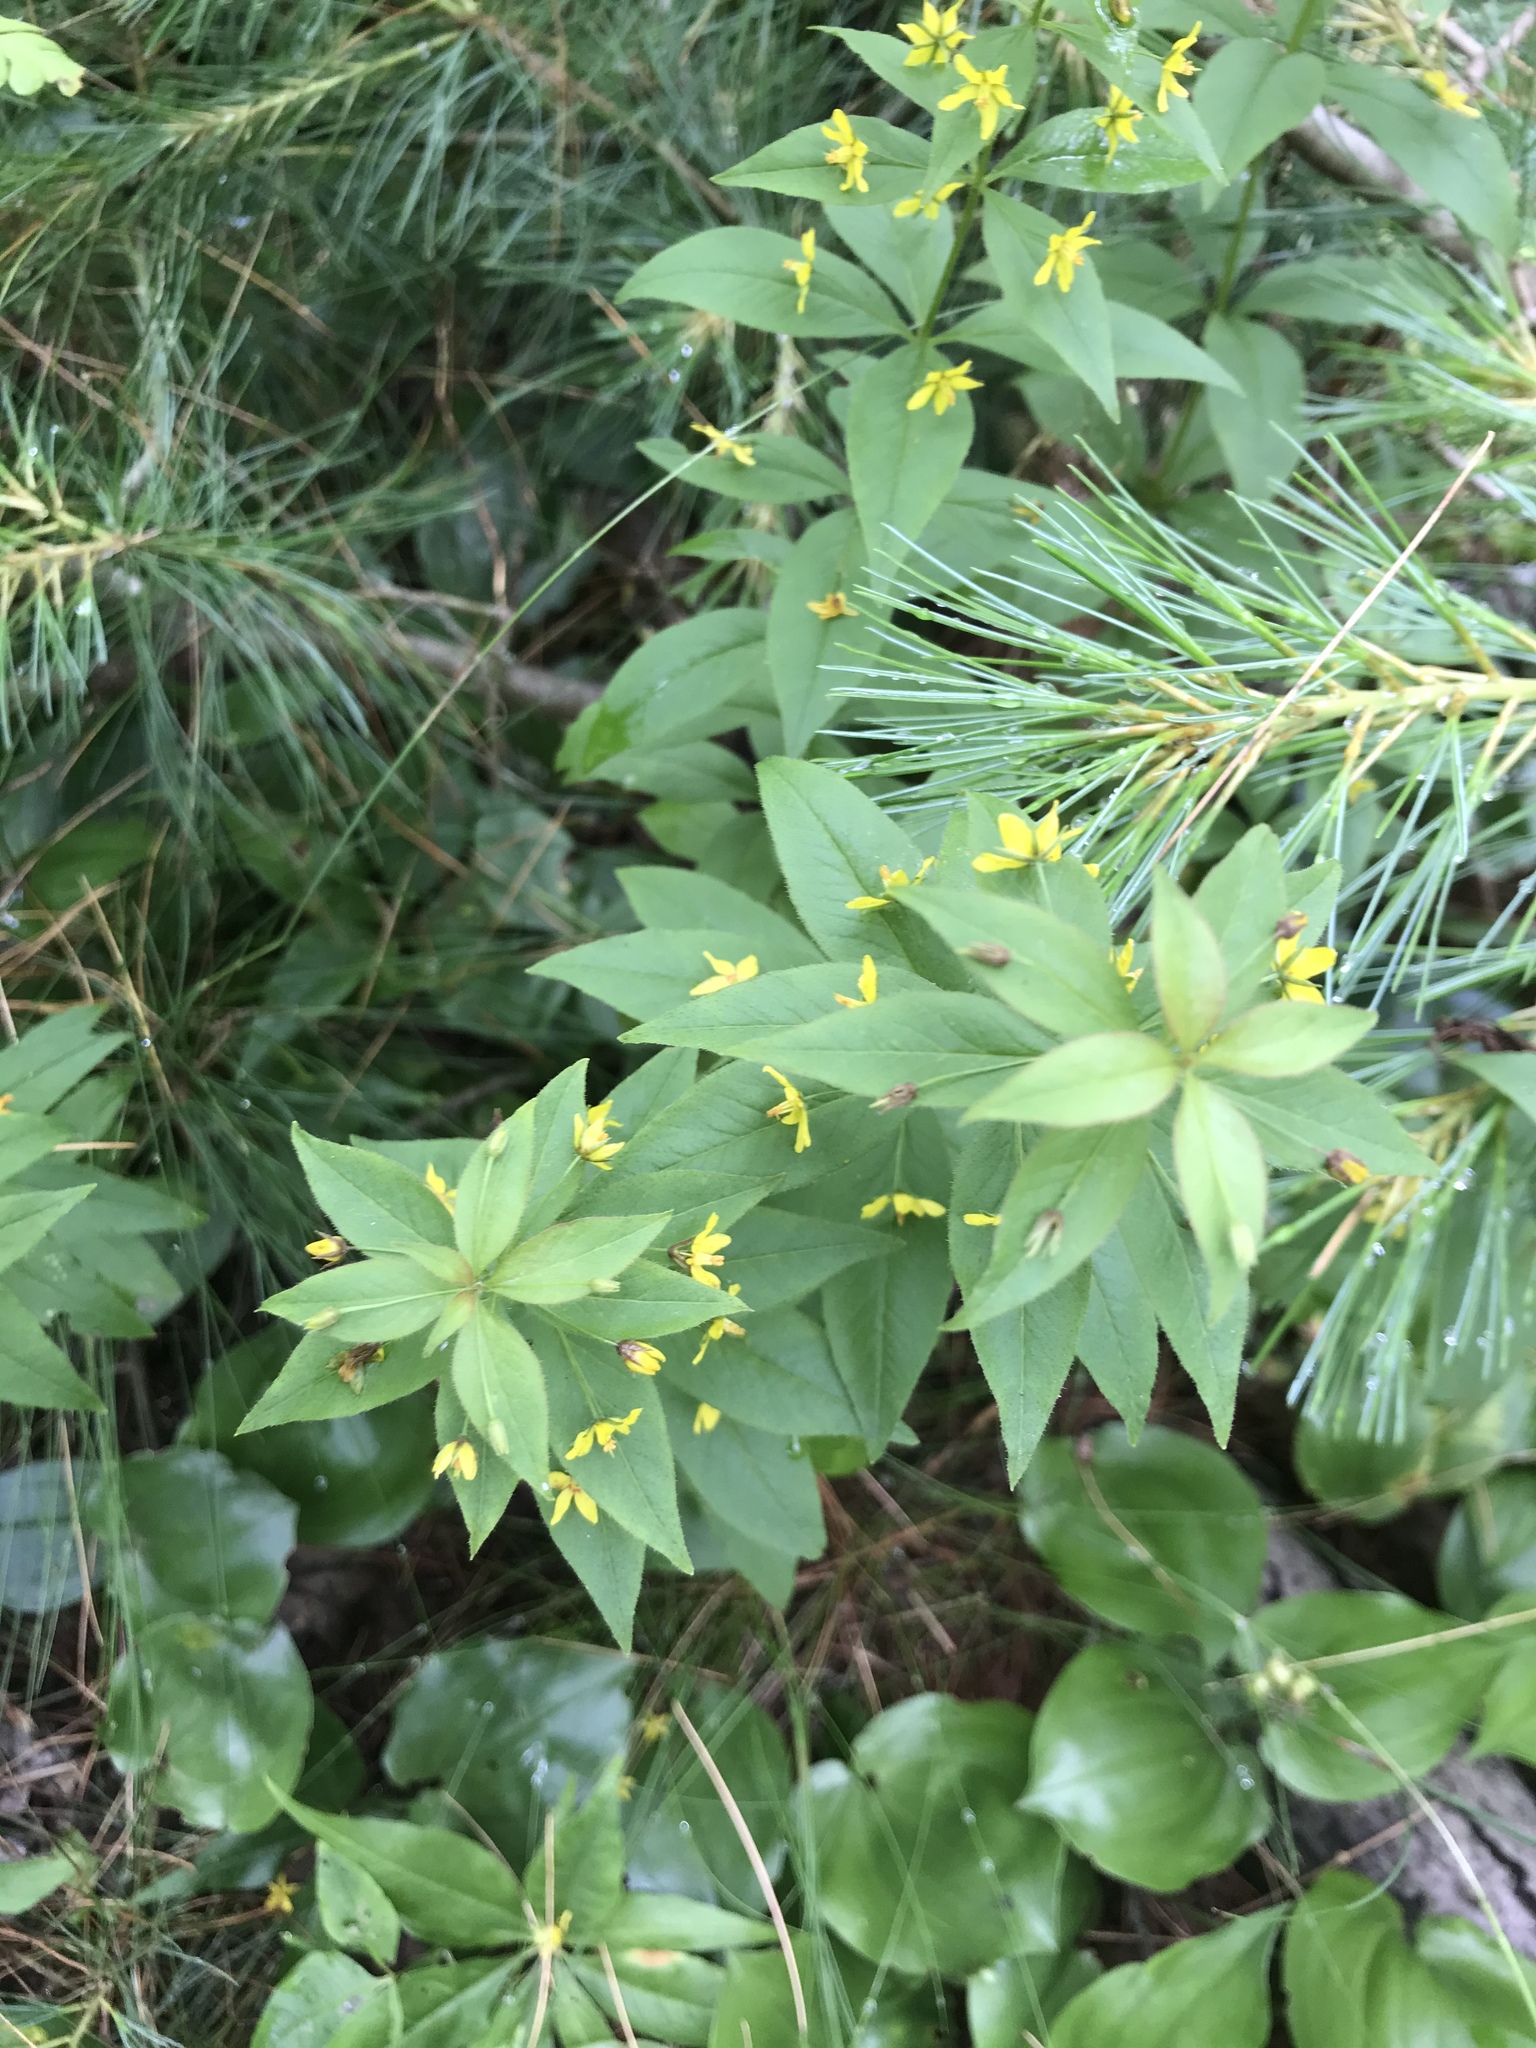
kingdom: Plantae
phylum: Tracheophyta
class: Magnoliopsida
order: Ericales
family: Primulaceae
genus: Lysimachia
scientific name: Lysimachia quadrifolia
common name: Whorled loosestrife
